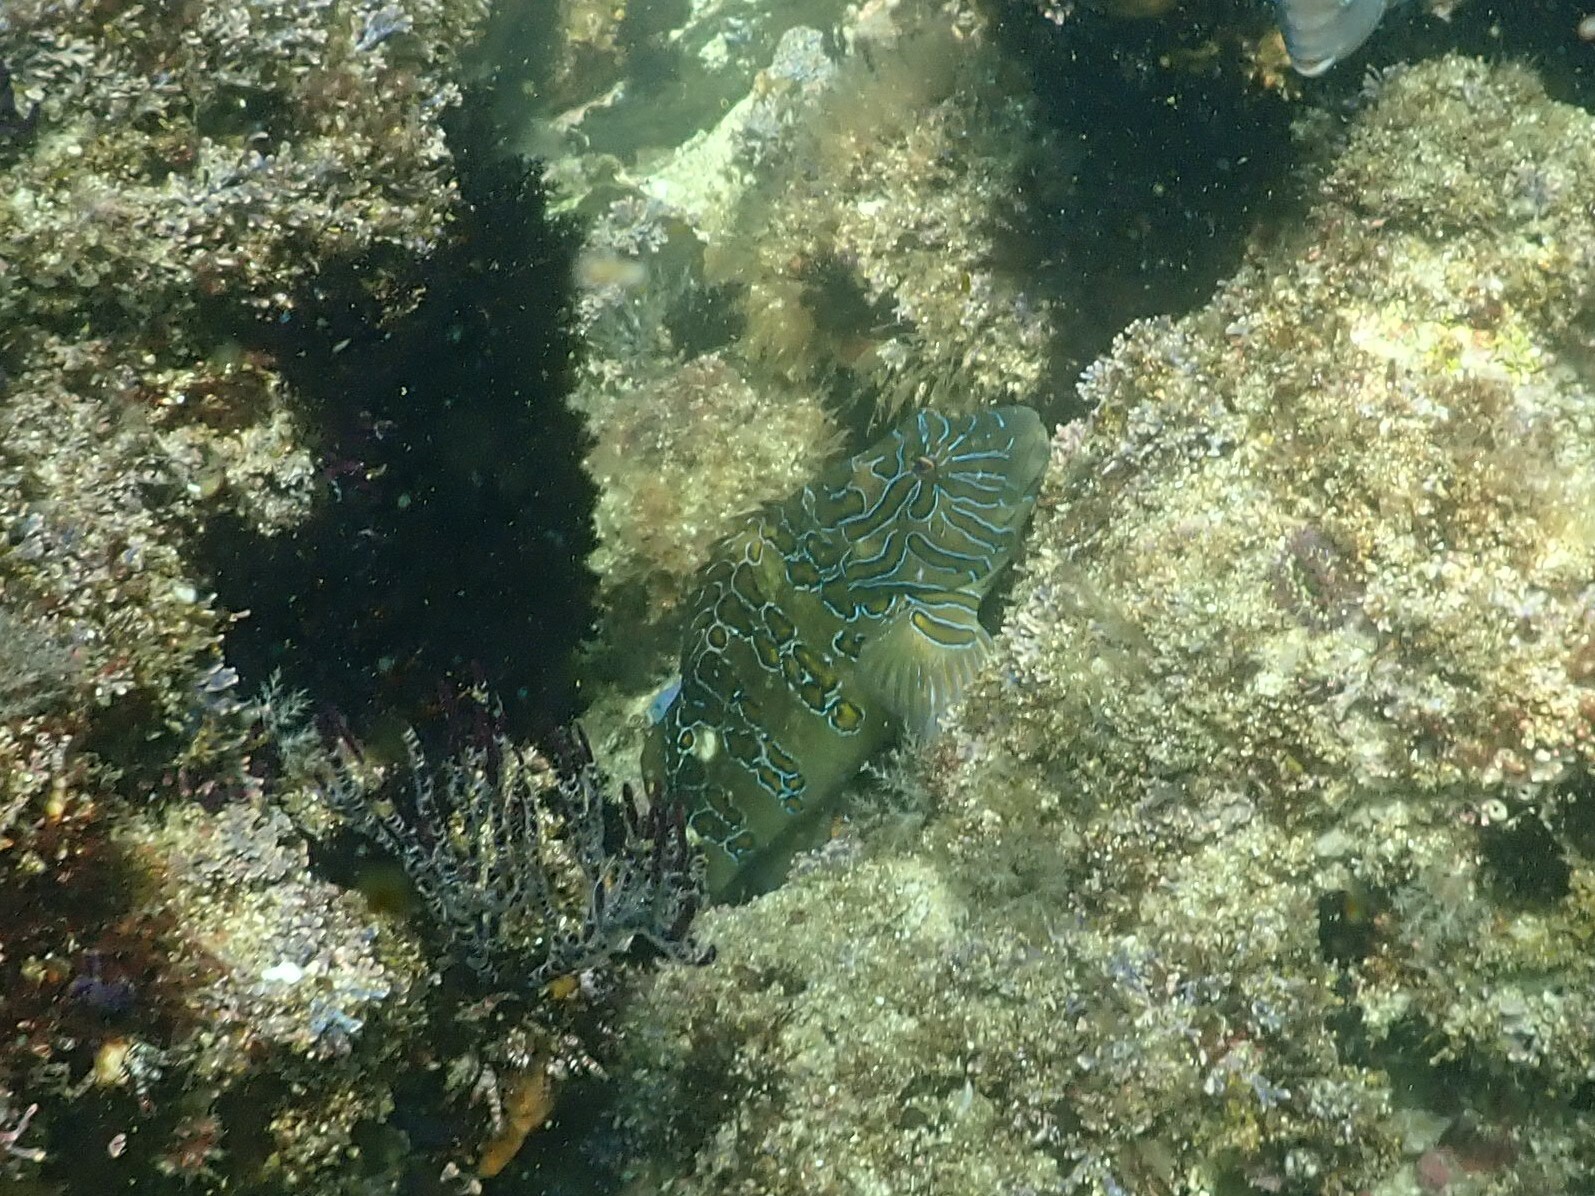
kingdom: Animalia
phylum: Chordata
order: Perciformes
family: Cirrhitidae
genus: Cirrhitus
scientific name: Cirrhitus rivulatus
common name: Giant hawkfish
